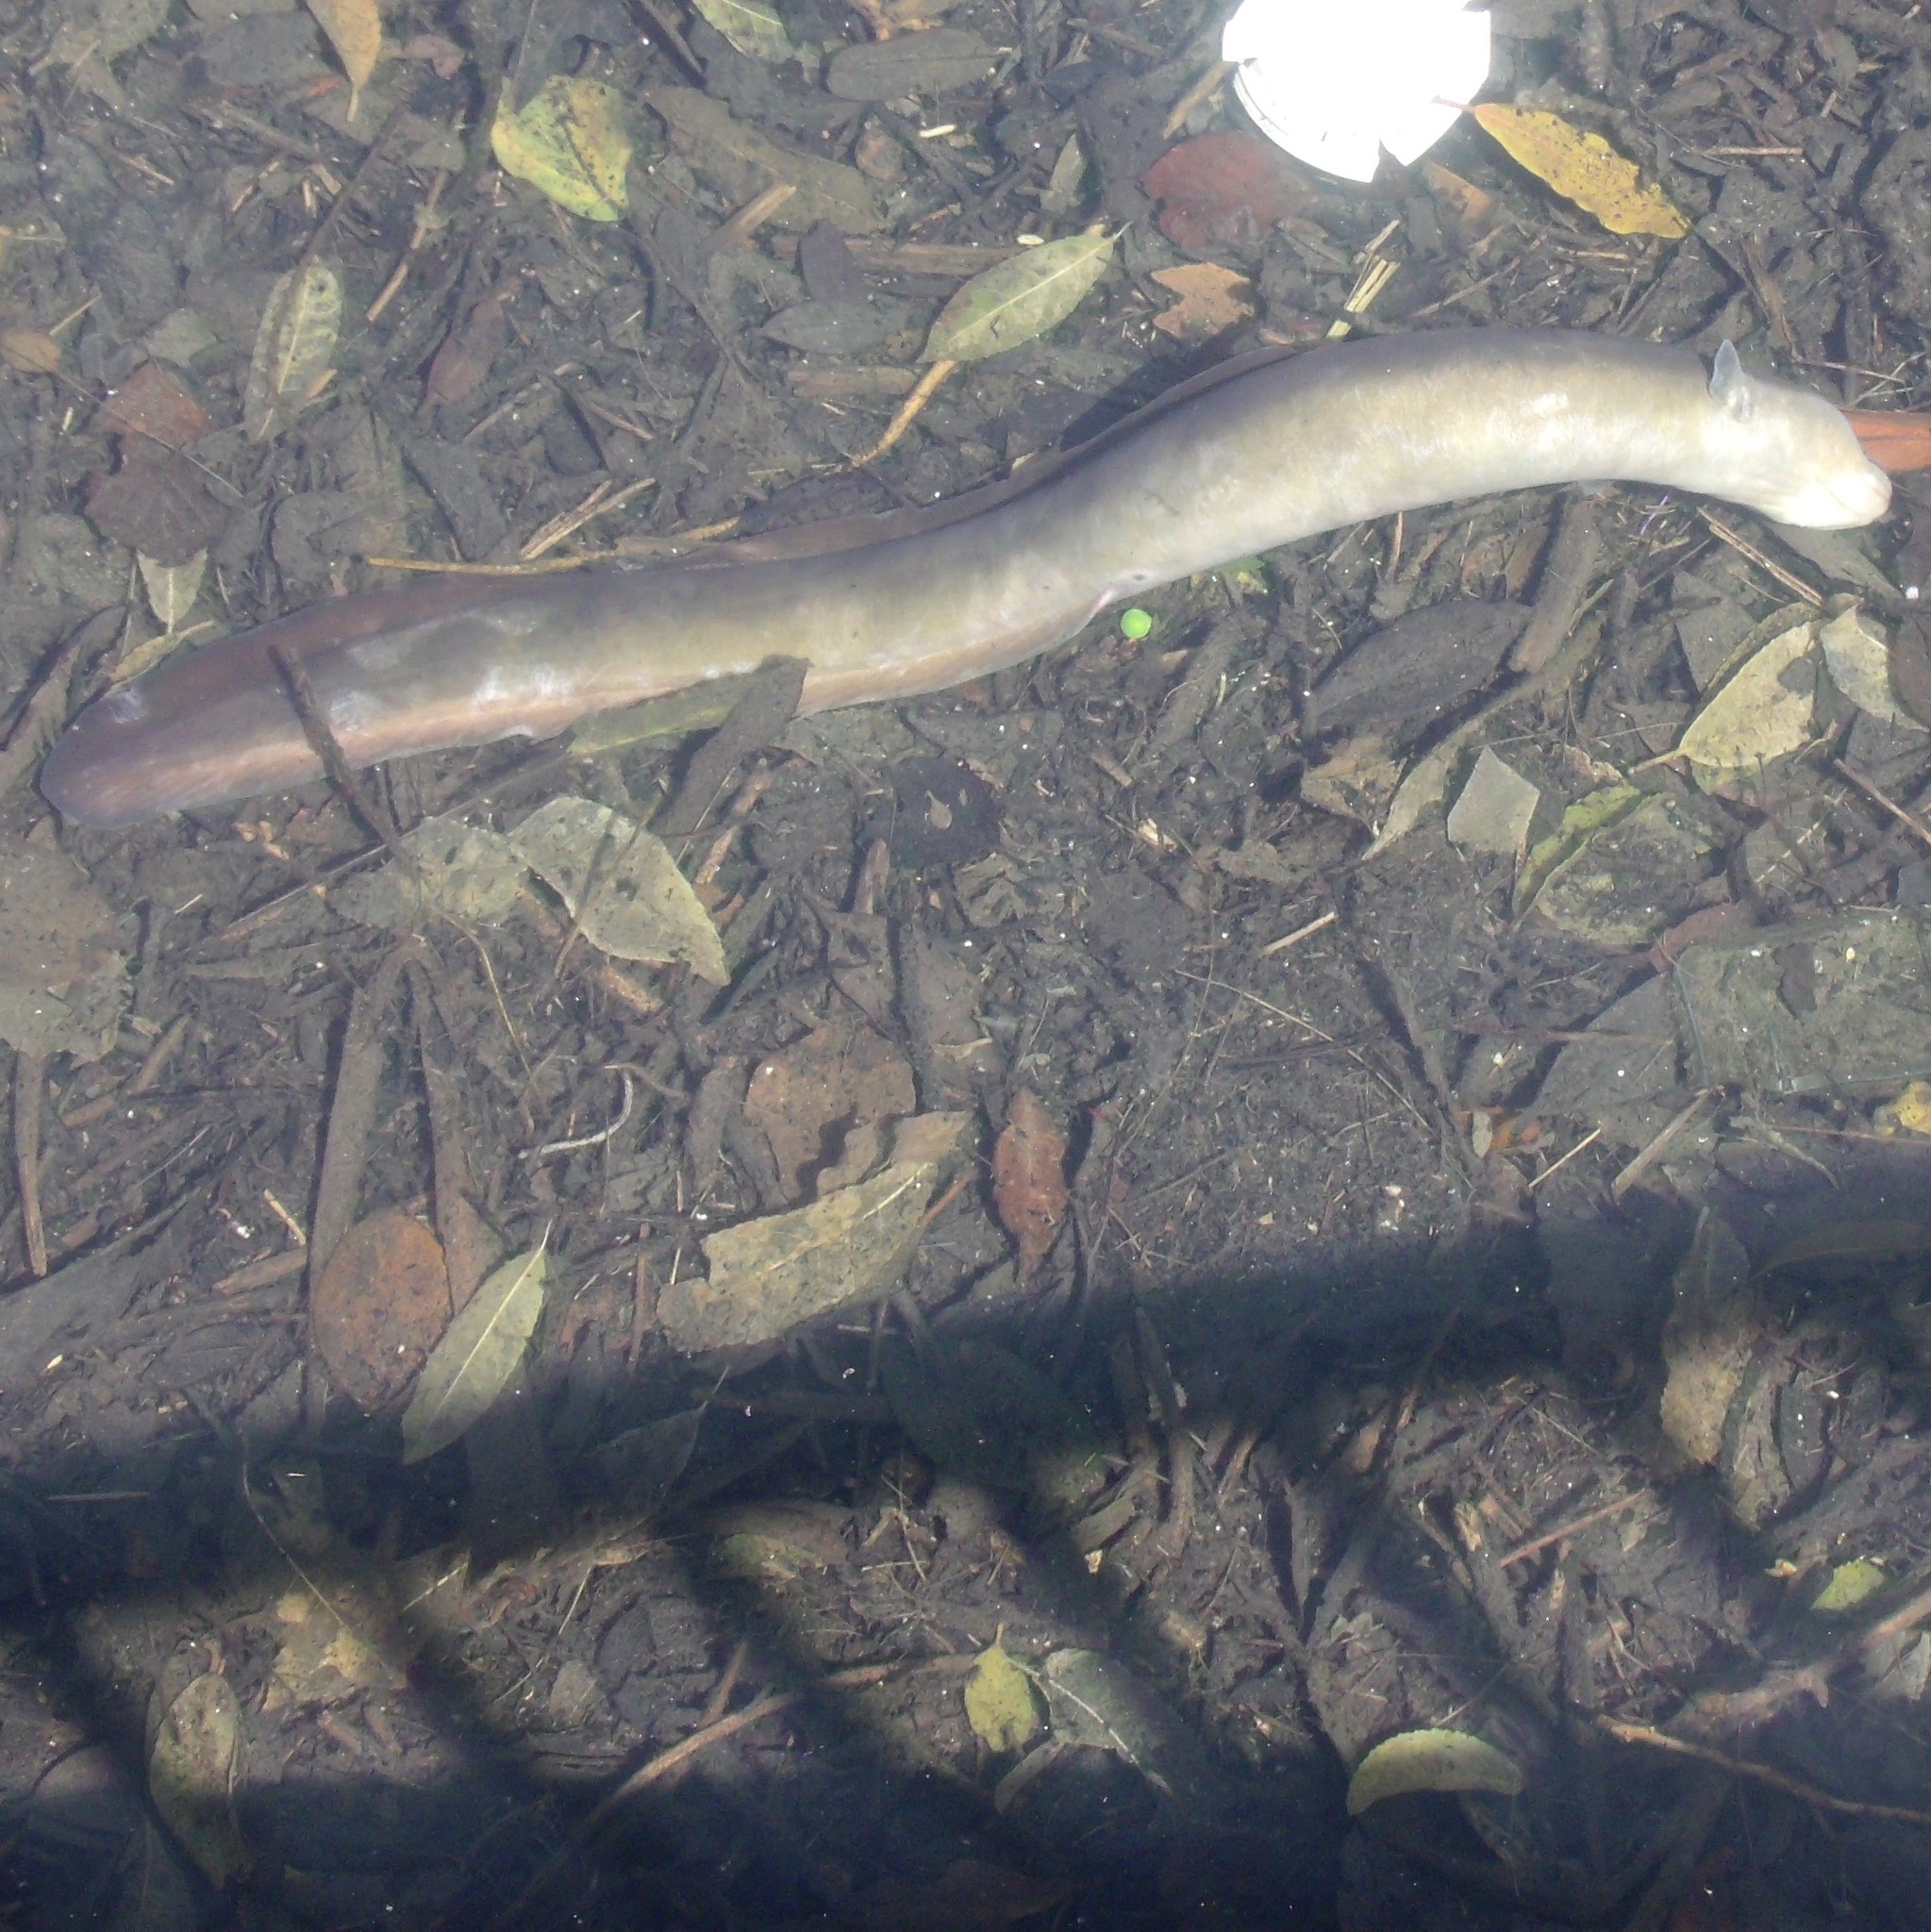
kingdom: Animalia
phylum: Chordata
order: Anguilliformes
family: Anguillidae
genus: Anguilla
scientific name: Anguilla dieffenbachii
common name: New zealand longfin eel
